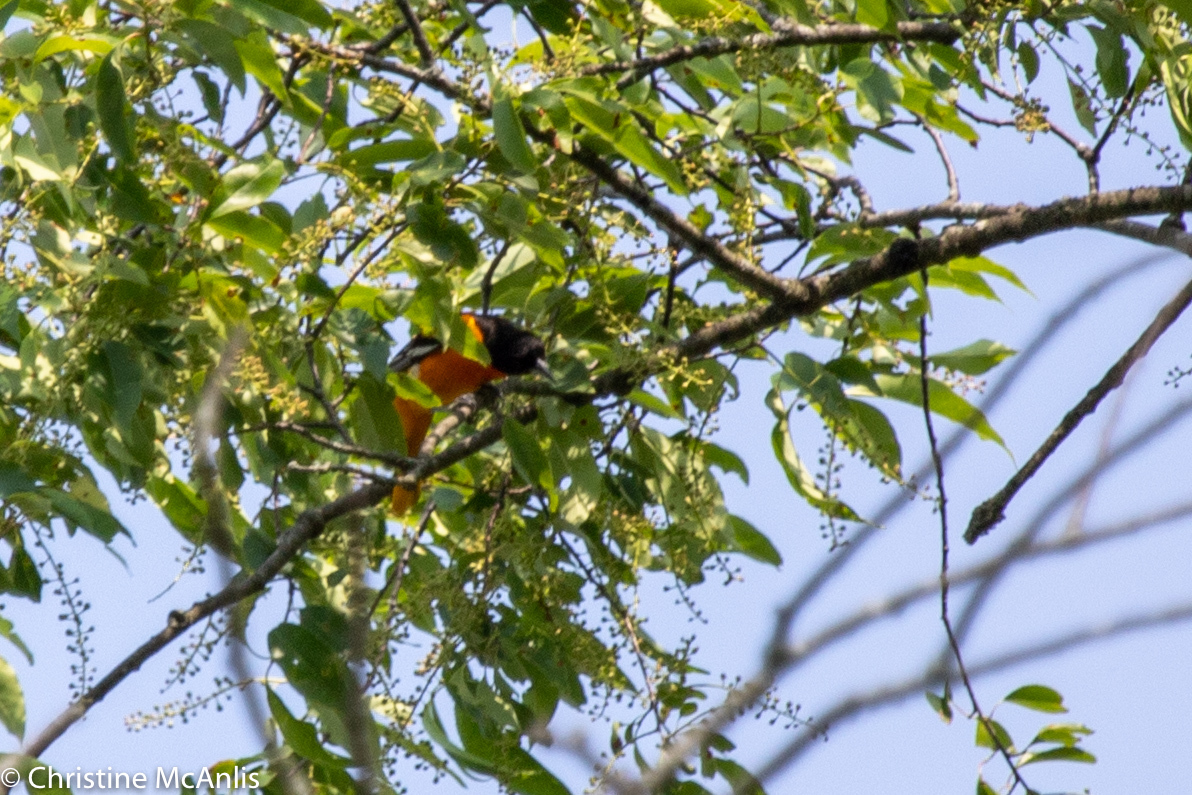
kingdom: Animalia
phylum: Chordata
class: Aves
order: Passeriformes
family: Icteridae
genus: Icterus
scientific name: Icterus galbula
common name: Baltimore oriole
